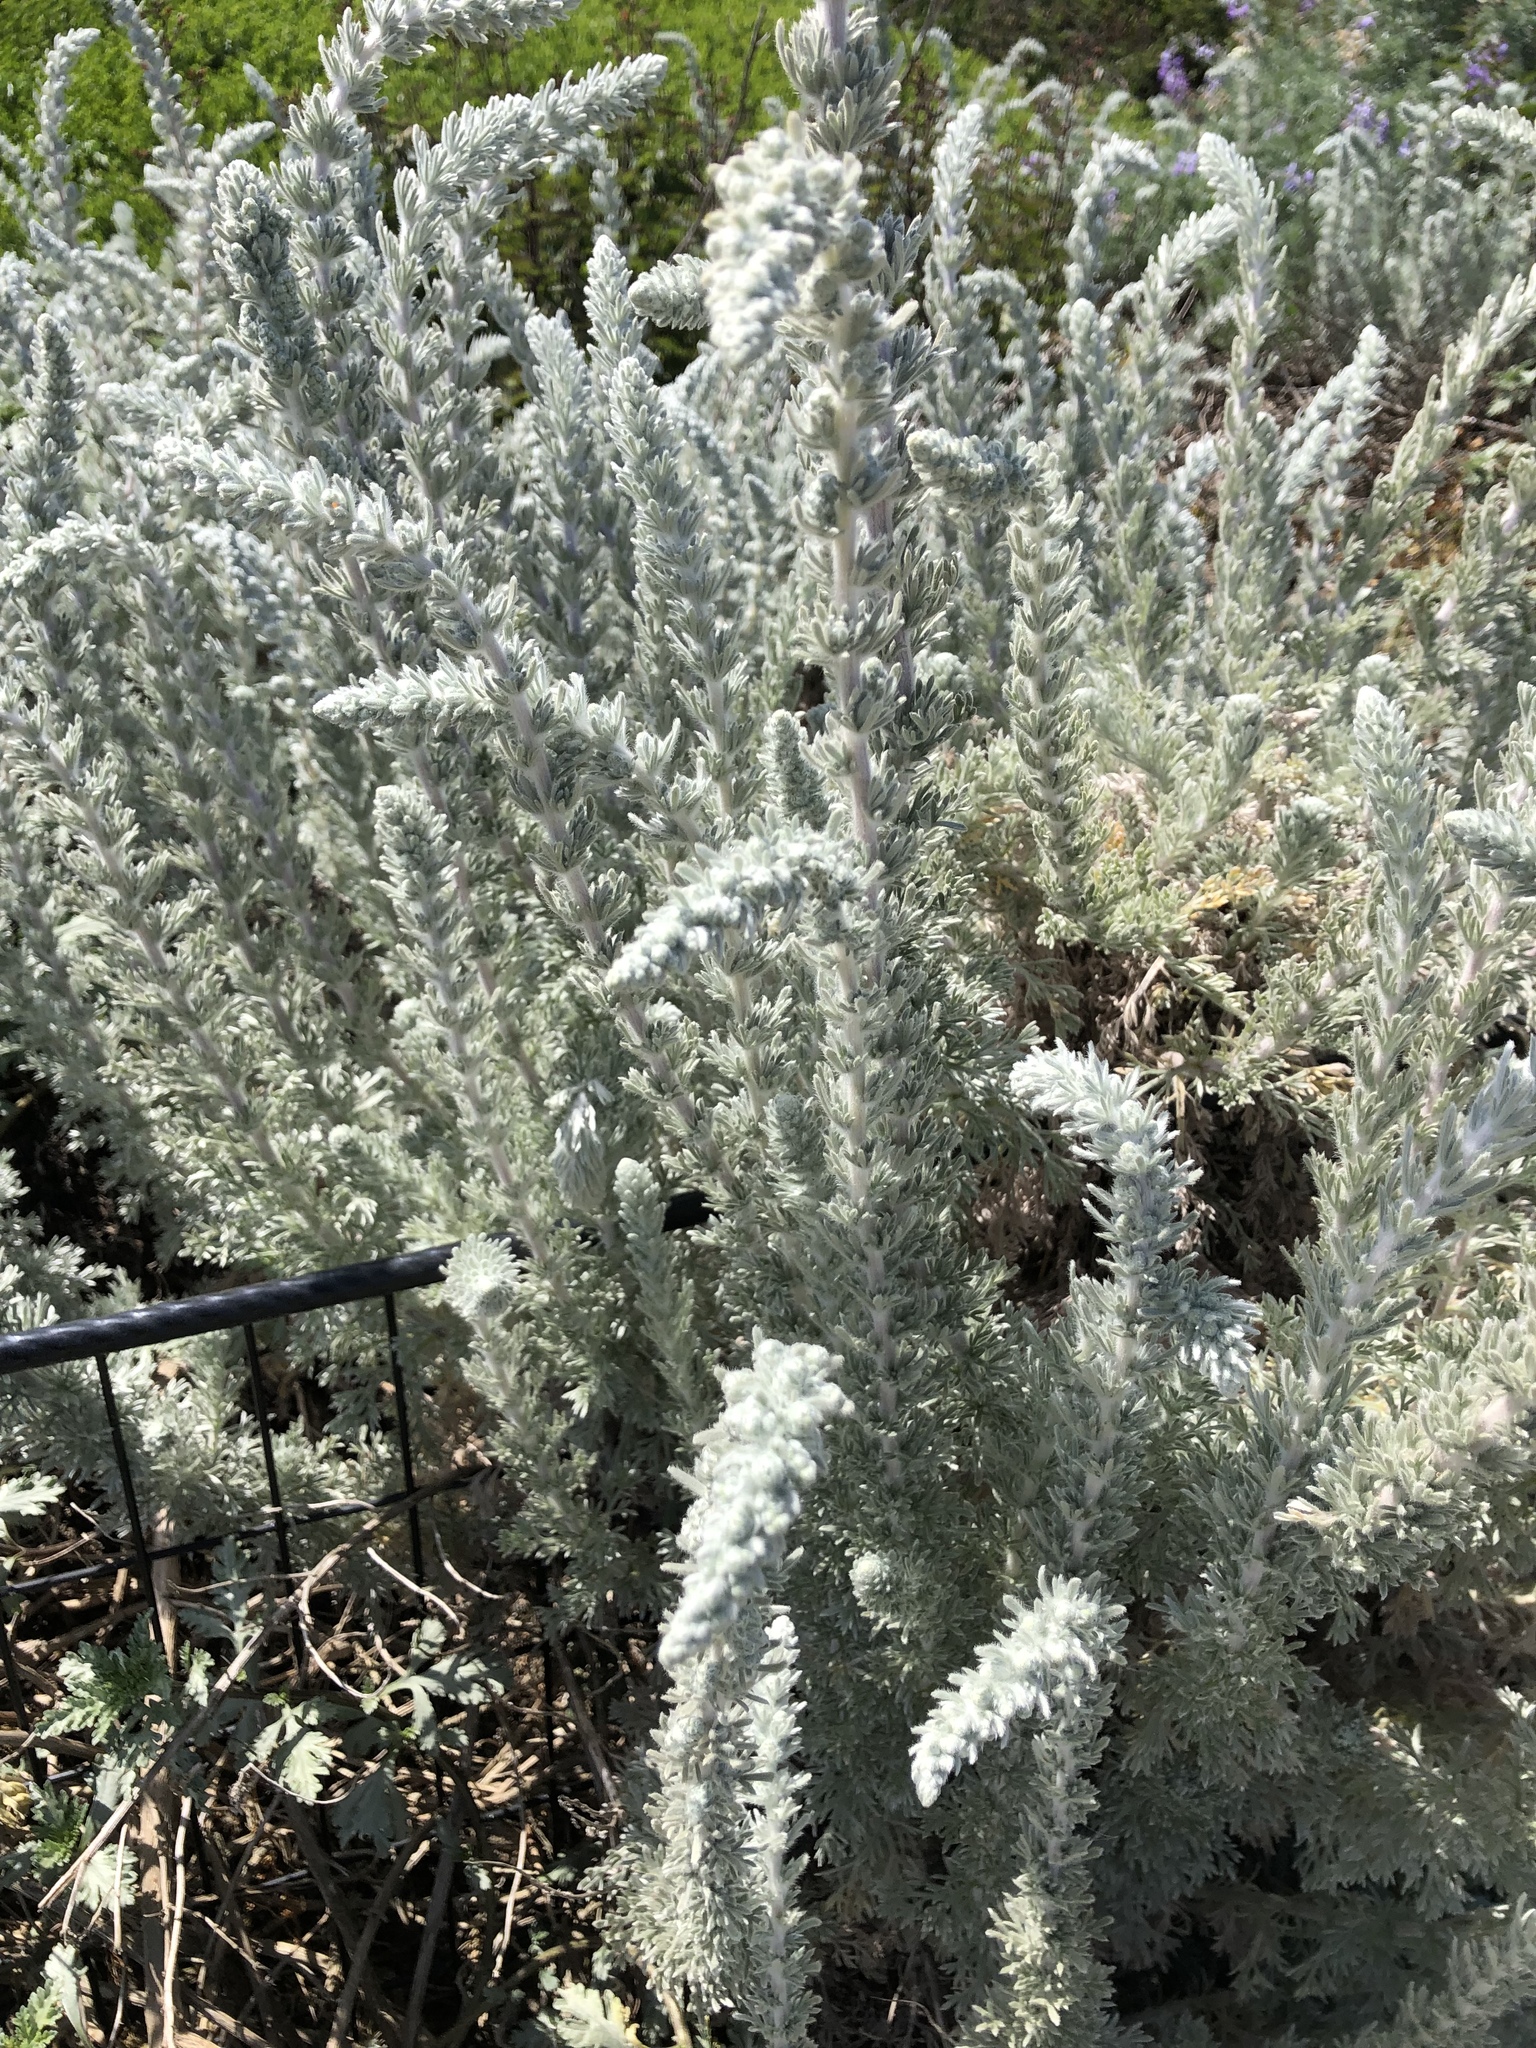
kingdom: Plantae
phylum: Tracheophyta
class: Magnoliopsida
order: Asterales
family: Asteraceae
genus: Artemisia
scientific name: Artemisia pycnocephala
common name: Coastal sagewort
